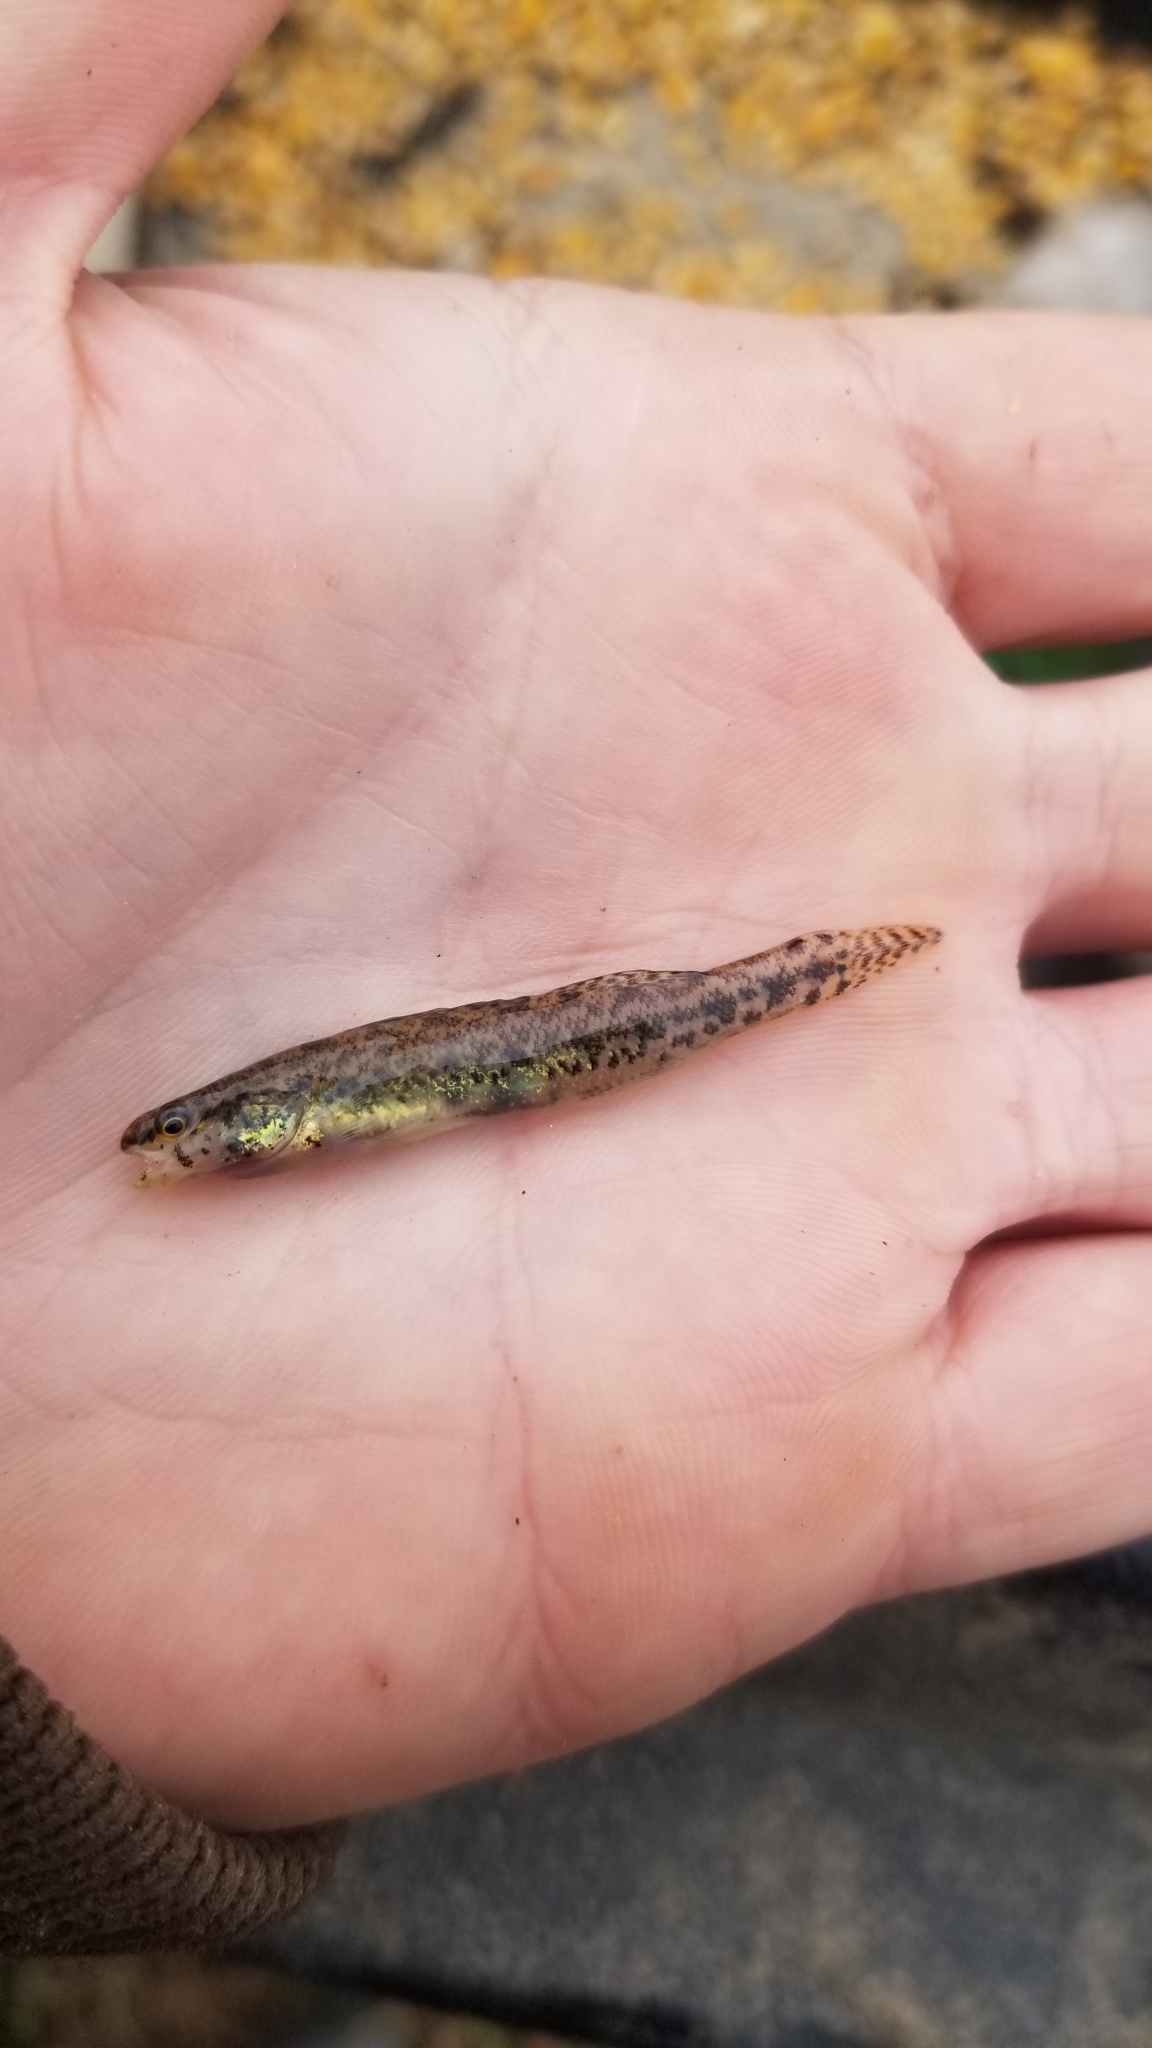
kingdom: Animalia
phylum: Chordata
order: Perciformes
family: Percidae
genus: Etheostoma
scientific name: Etheostoma fusiforme
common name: Swamp darter
